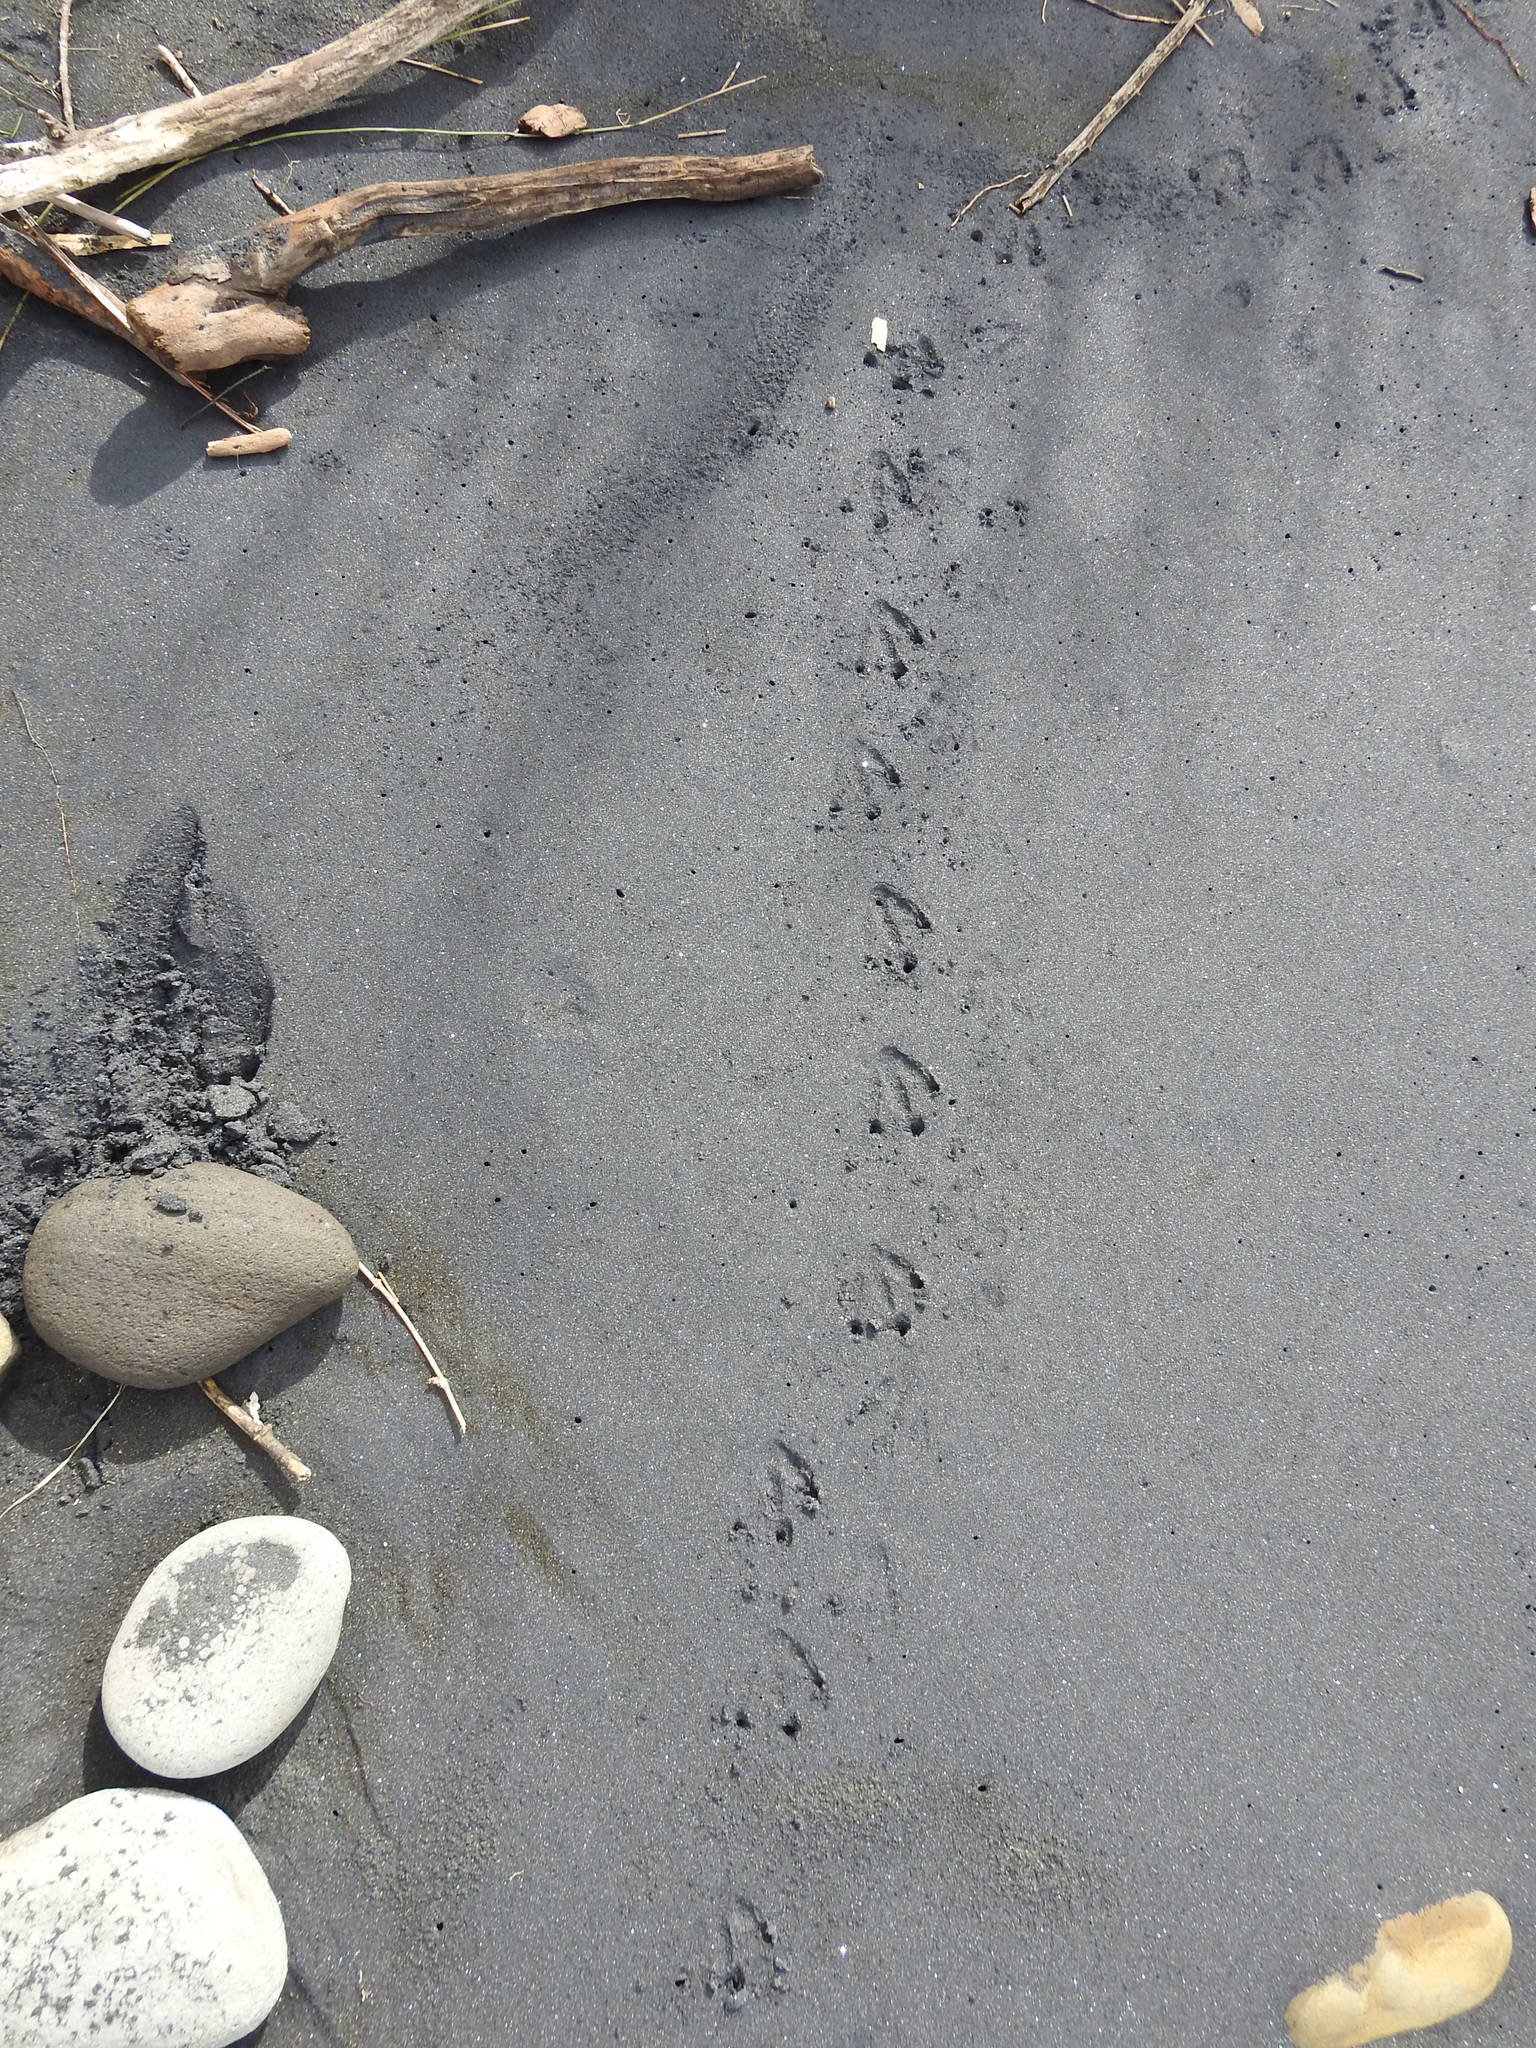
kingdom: Animalia
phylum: Chordata
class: Aves
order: Sphenisciformes
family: Spheniscidae
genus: Eudyptula
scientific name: Eudyptula minor
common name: Little penguin
